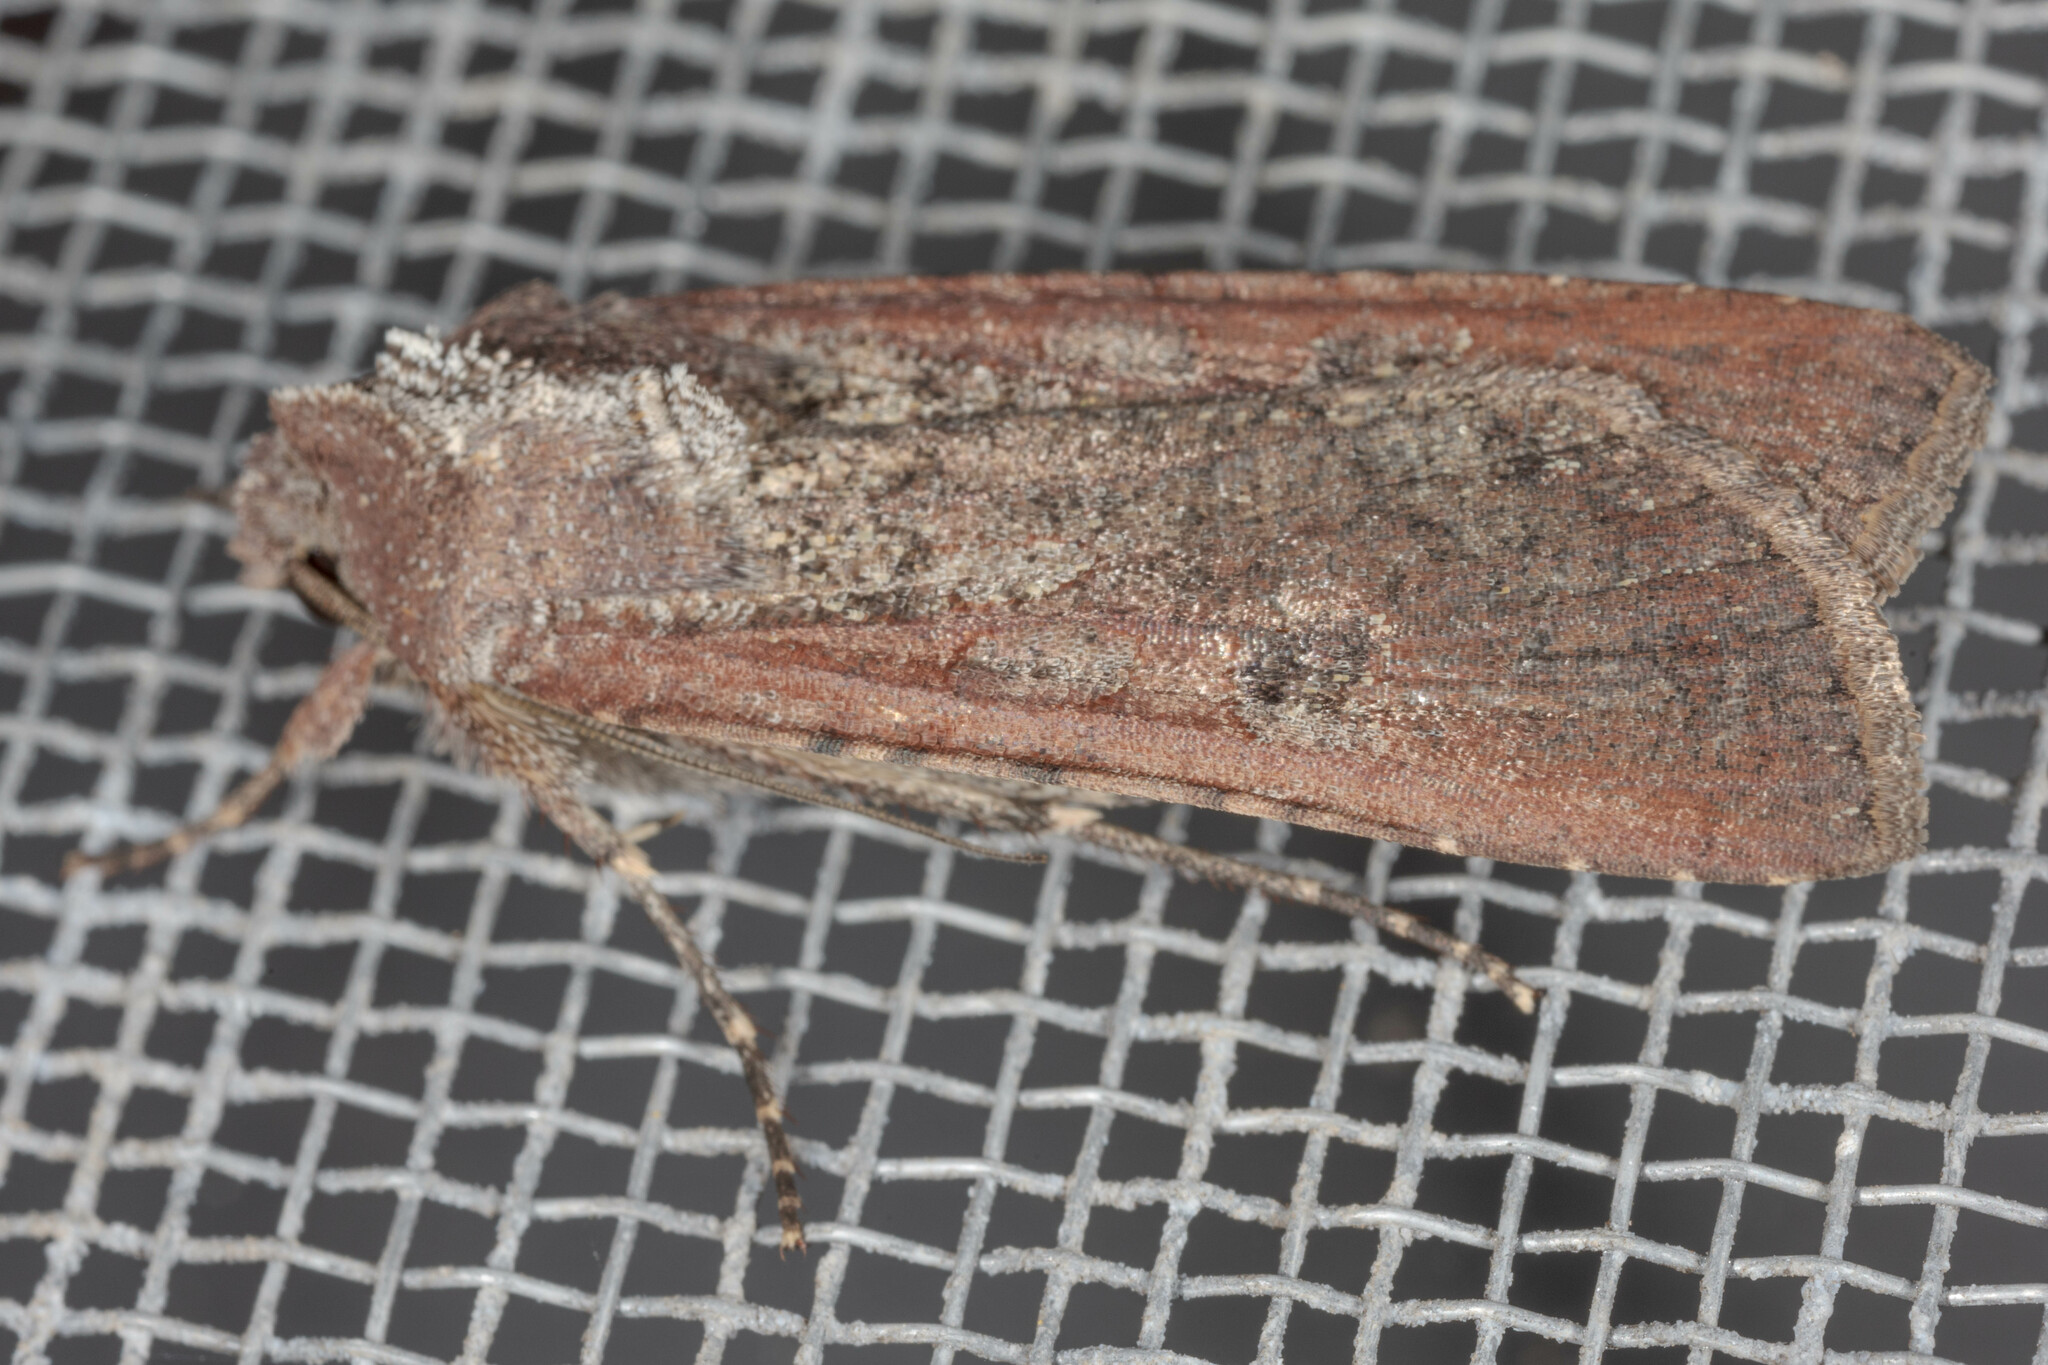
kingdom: Animalia
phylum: Arthropoda
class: Insecta
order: Lepidoptera
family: Noctuidae
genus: Peridroma
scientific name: Peridroma saucia
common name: Pearly underwing
